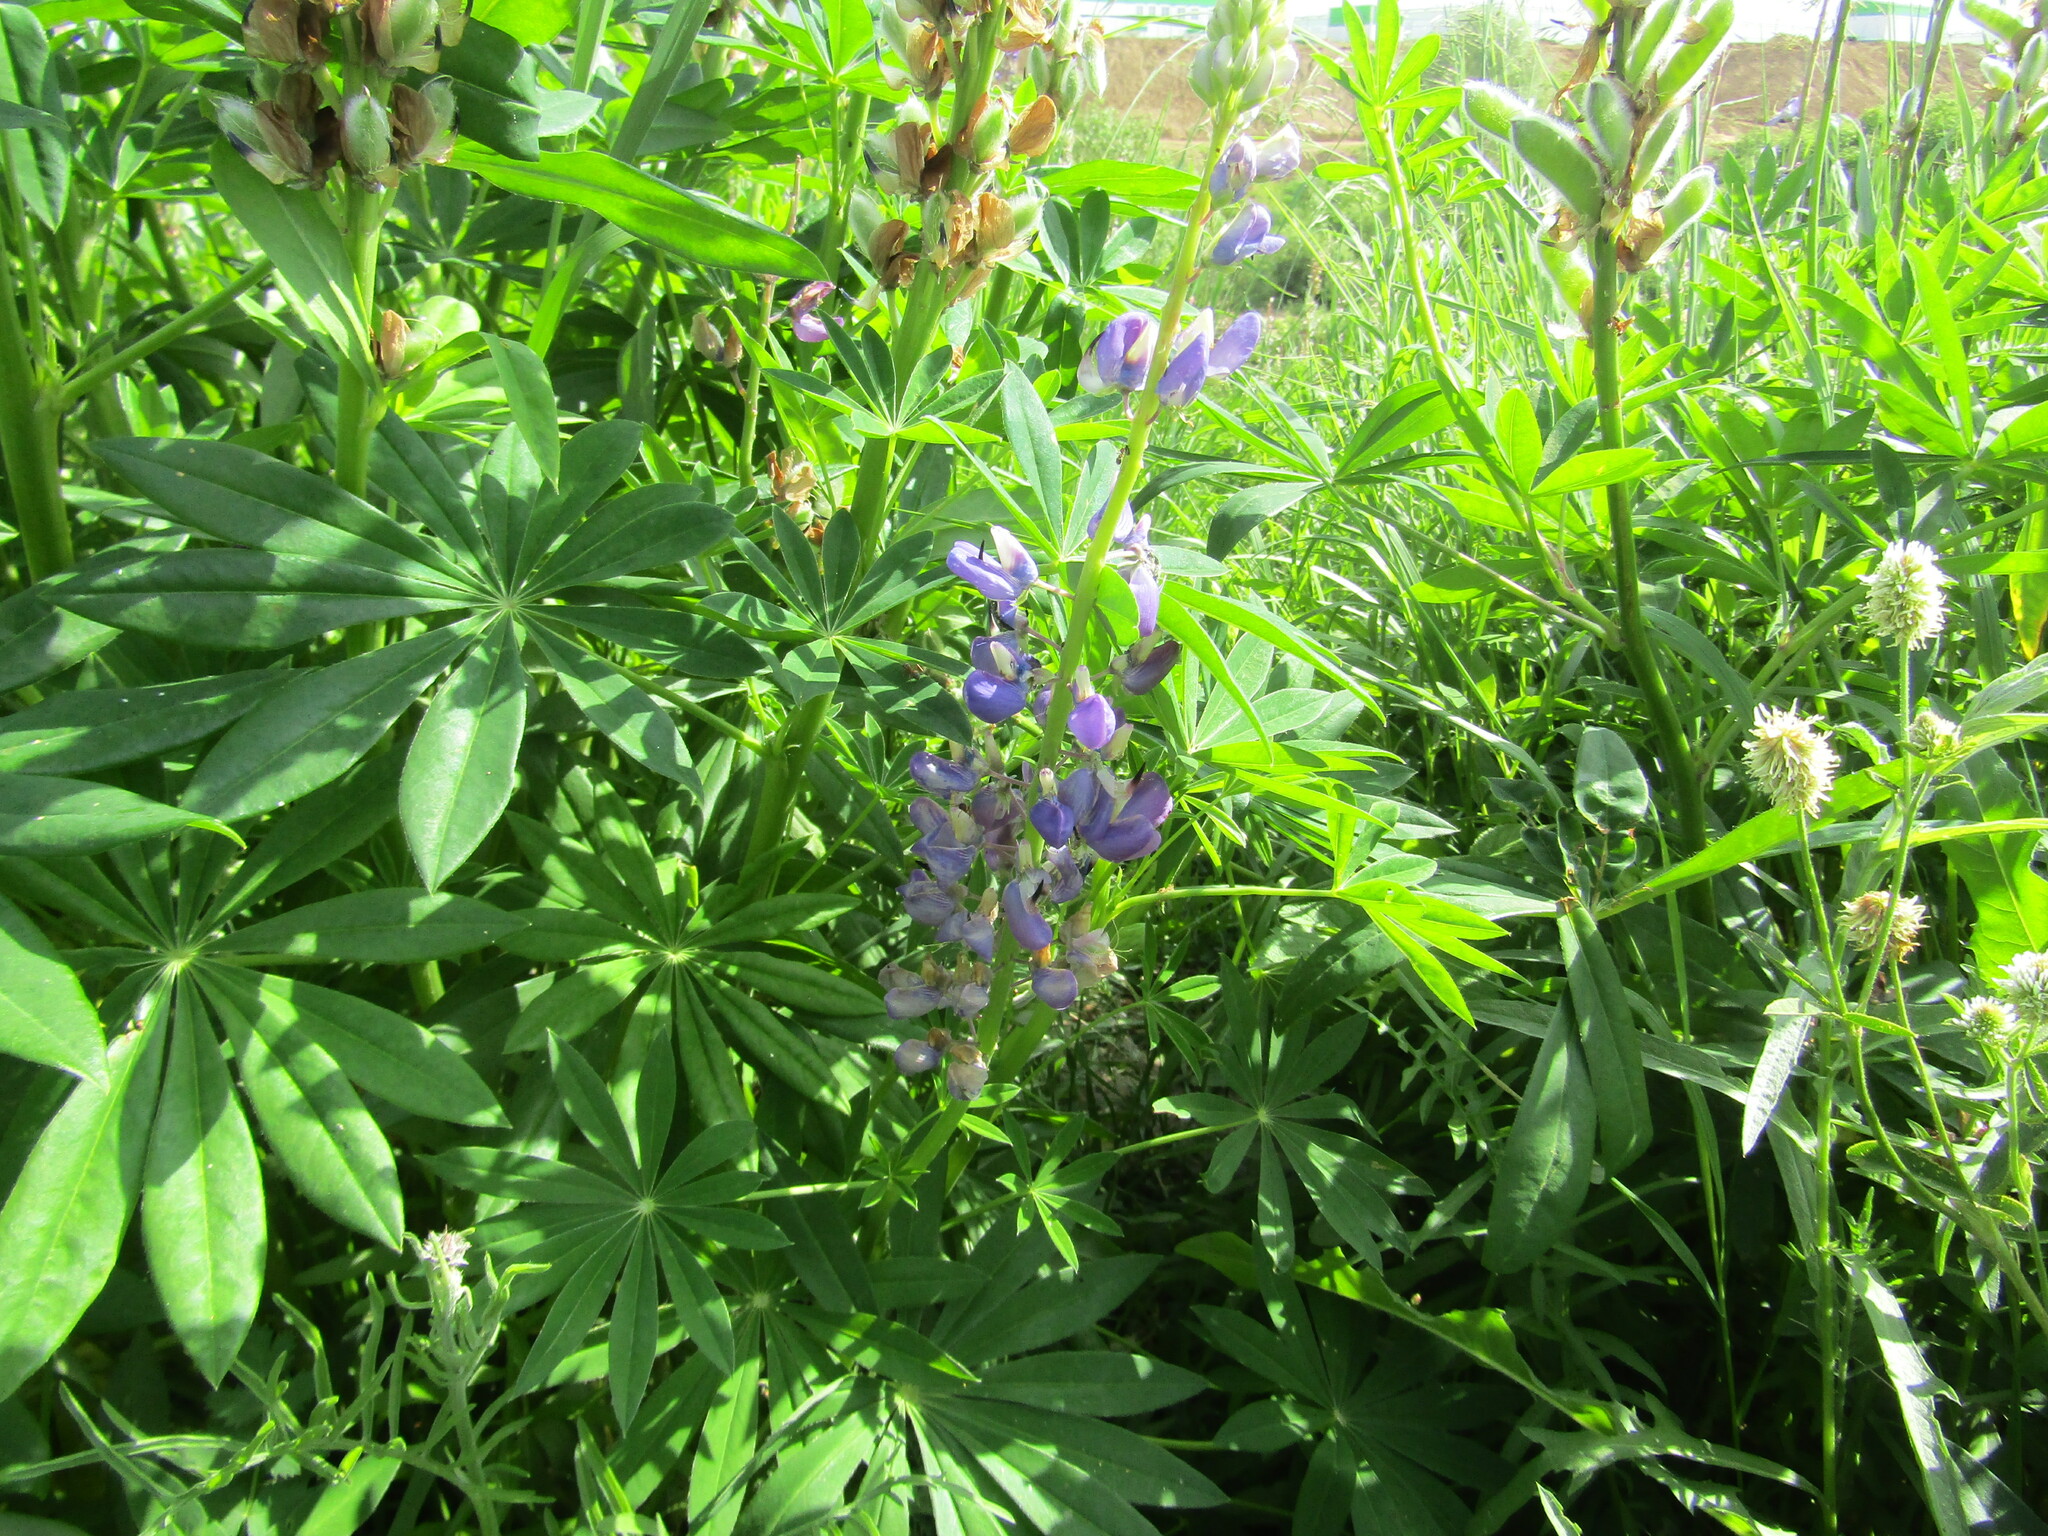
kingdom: Plantae
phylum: Tracheophyta
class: Magnoliopsida
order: Fabales
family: Fabaceae
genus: Lupinus
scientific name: Lupinus polyphyllus
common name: Garden lupin
